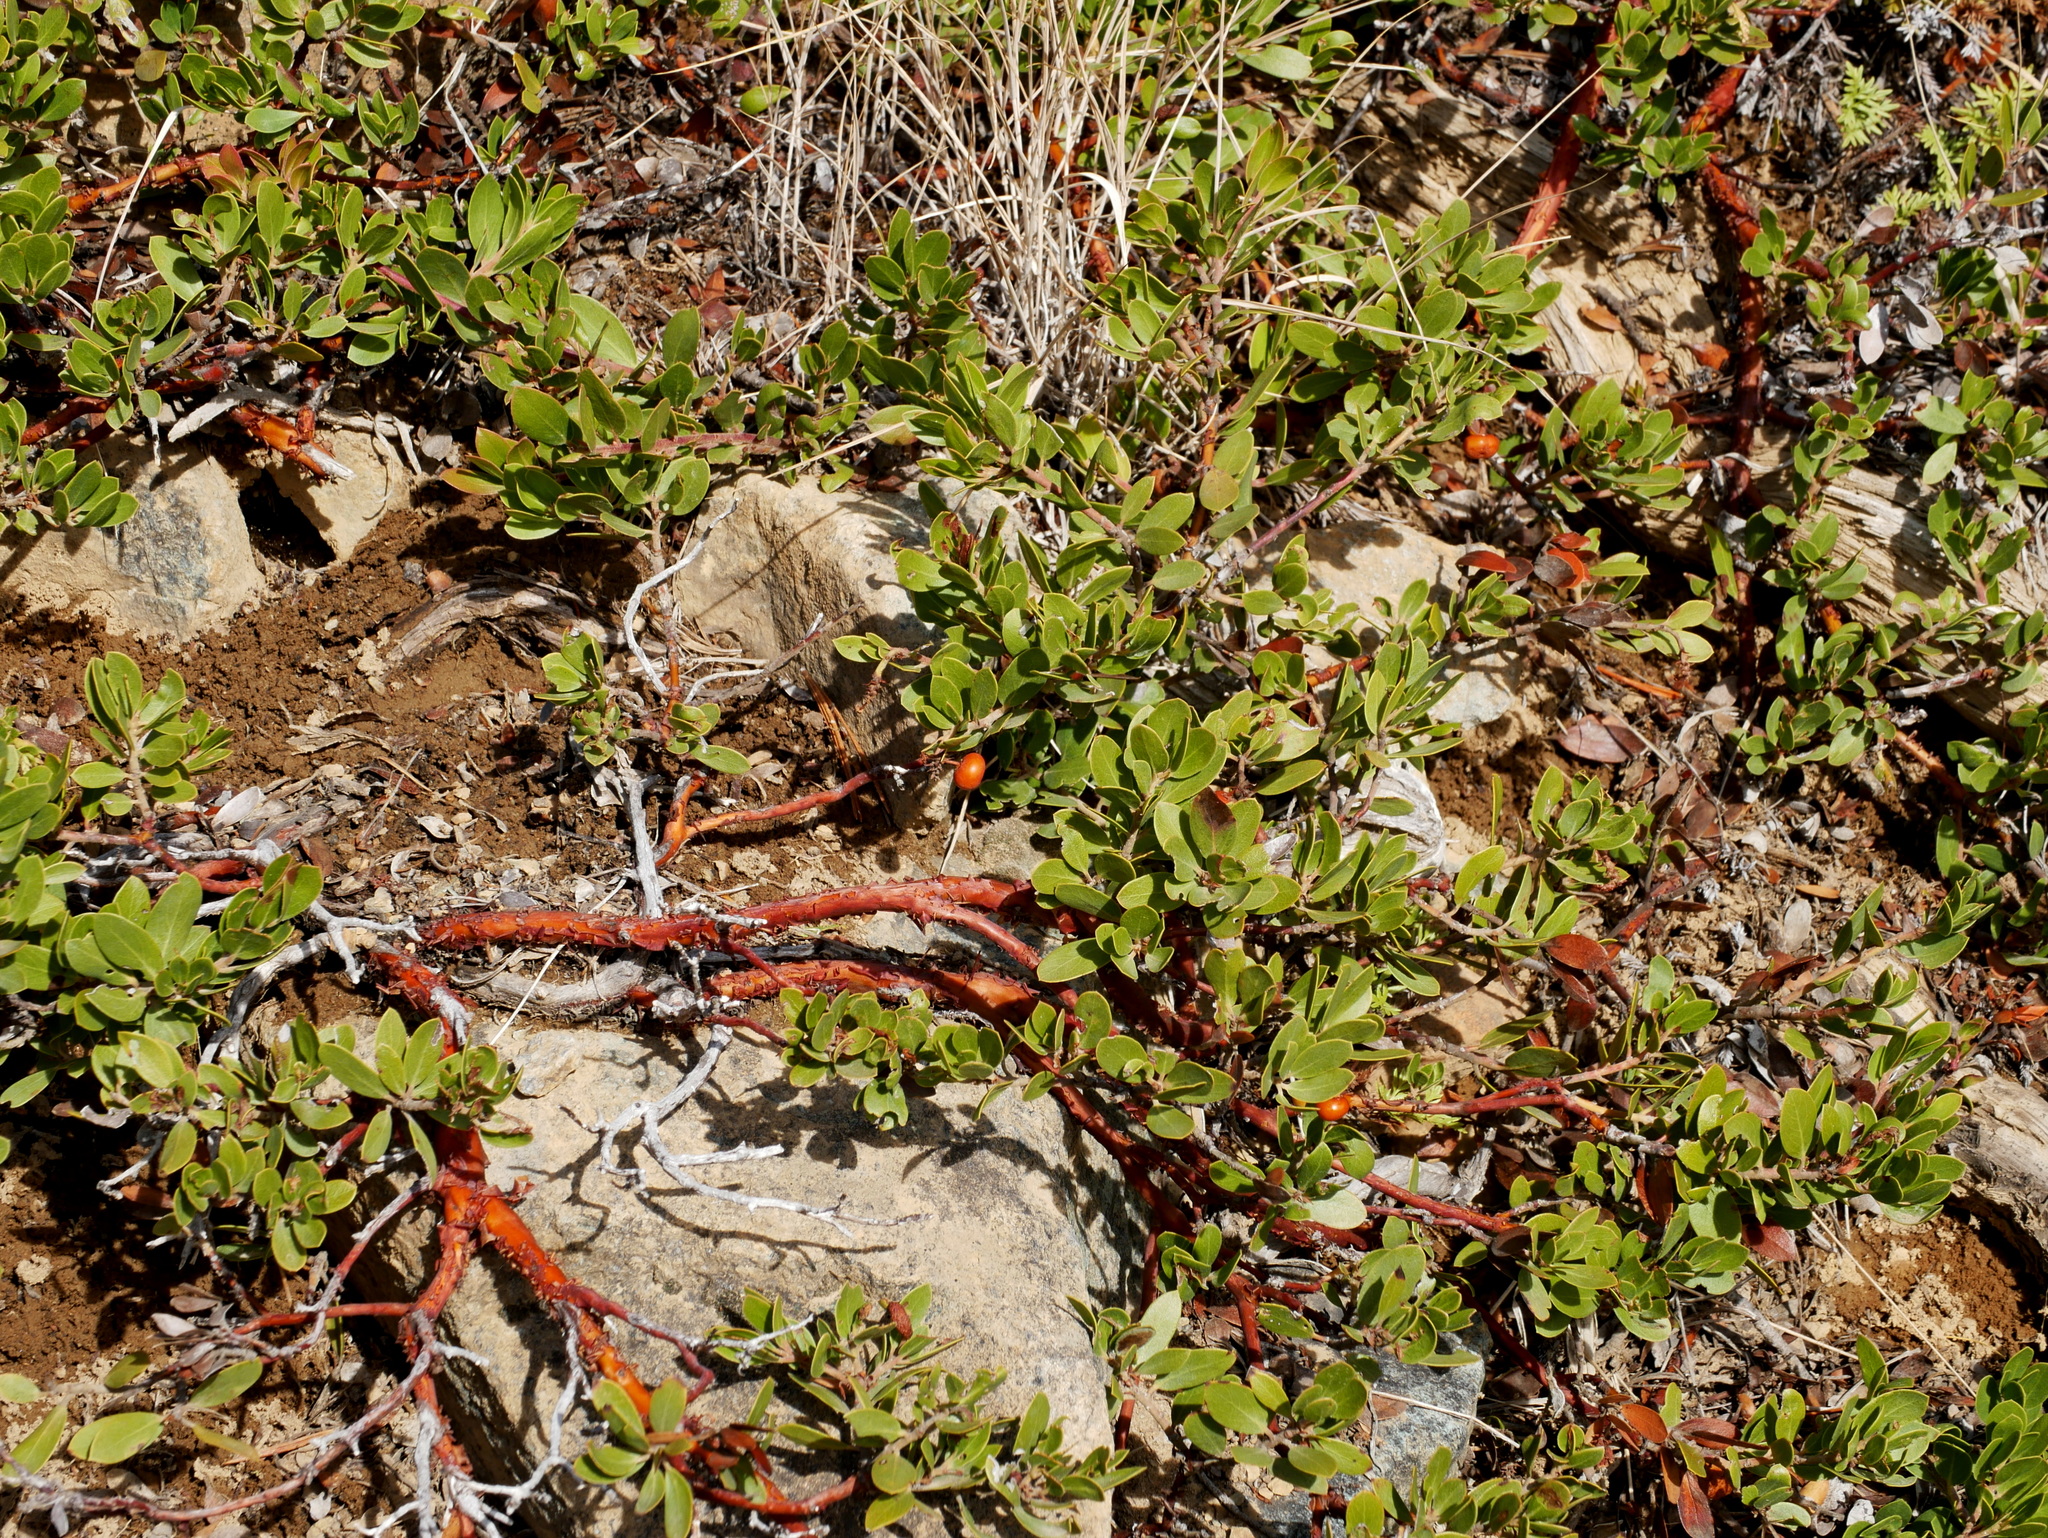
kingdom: Plantae
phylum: Tracheophyta
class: Magnoliopsida
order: Ericales
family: Ericaceae
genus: Arctostaphylos
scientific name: Arctostaphylos nevadensis
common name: Pinemat manzanita
